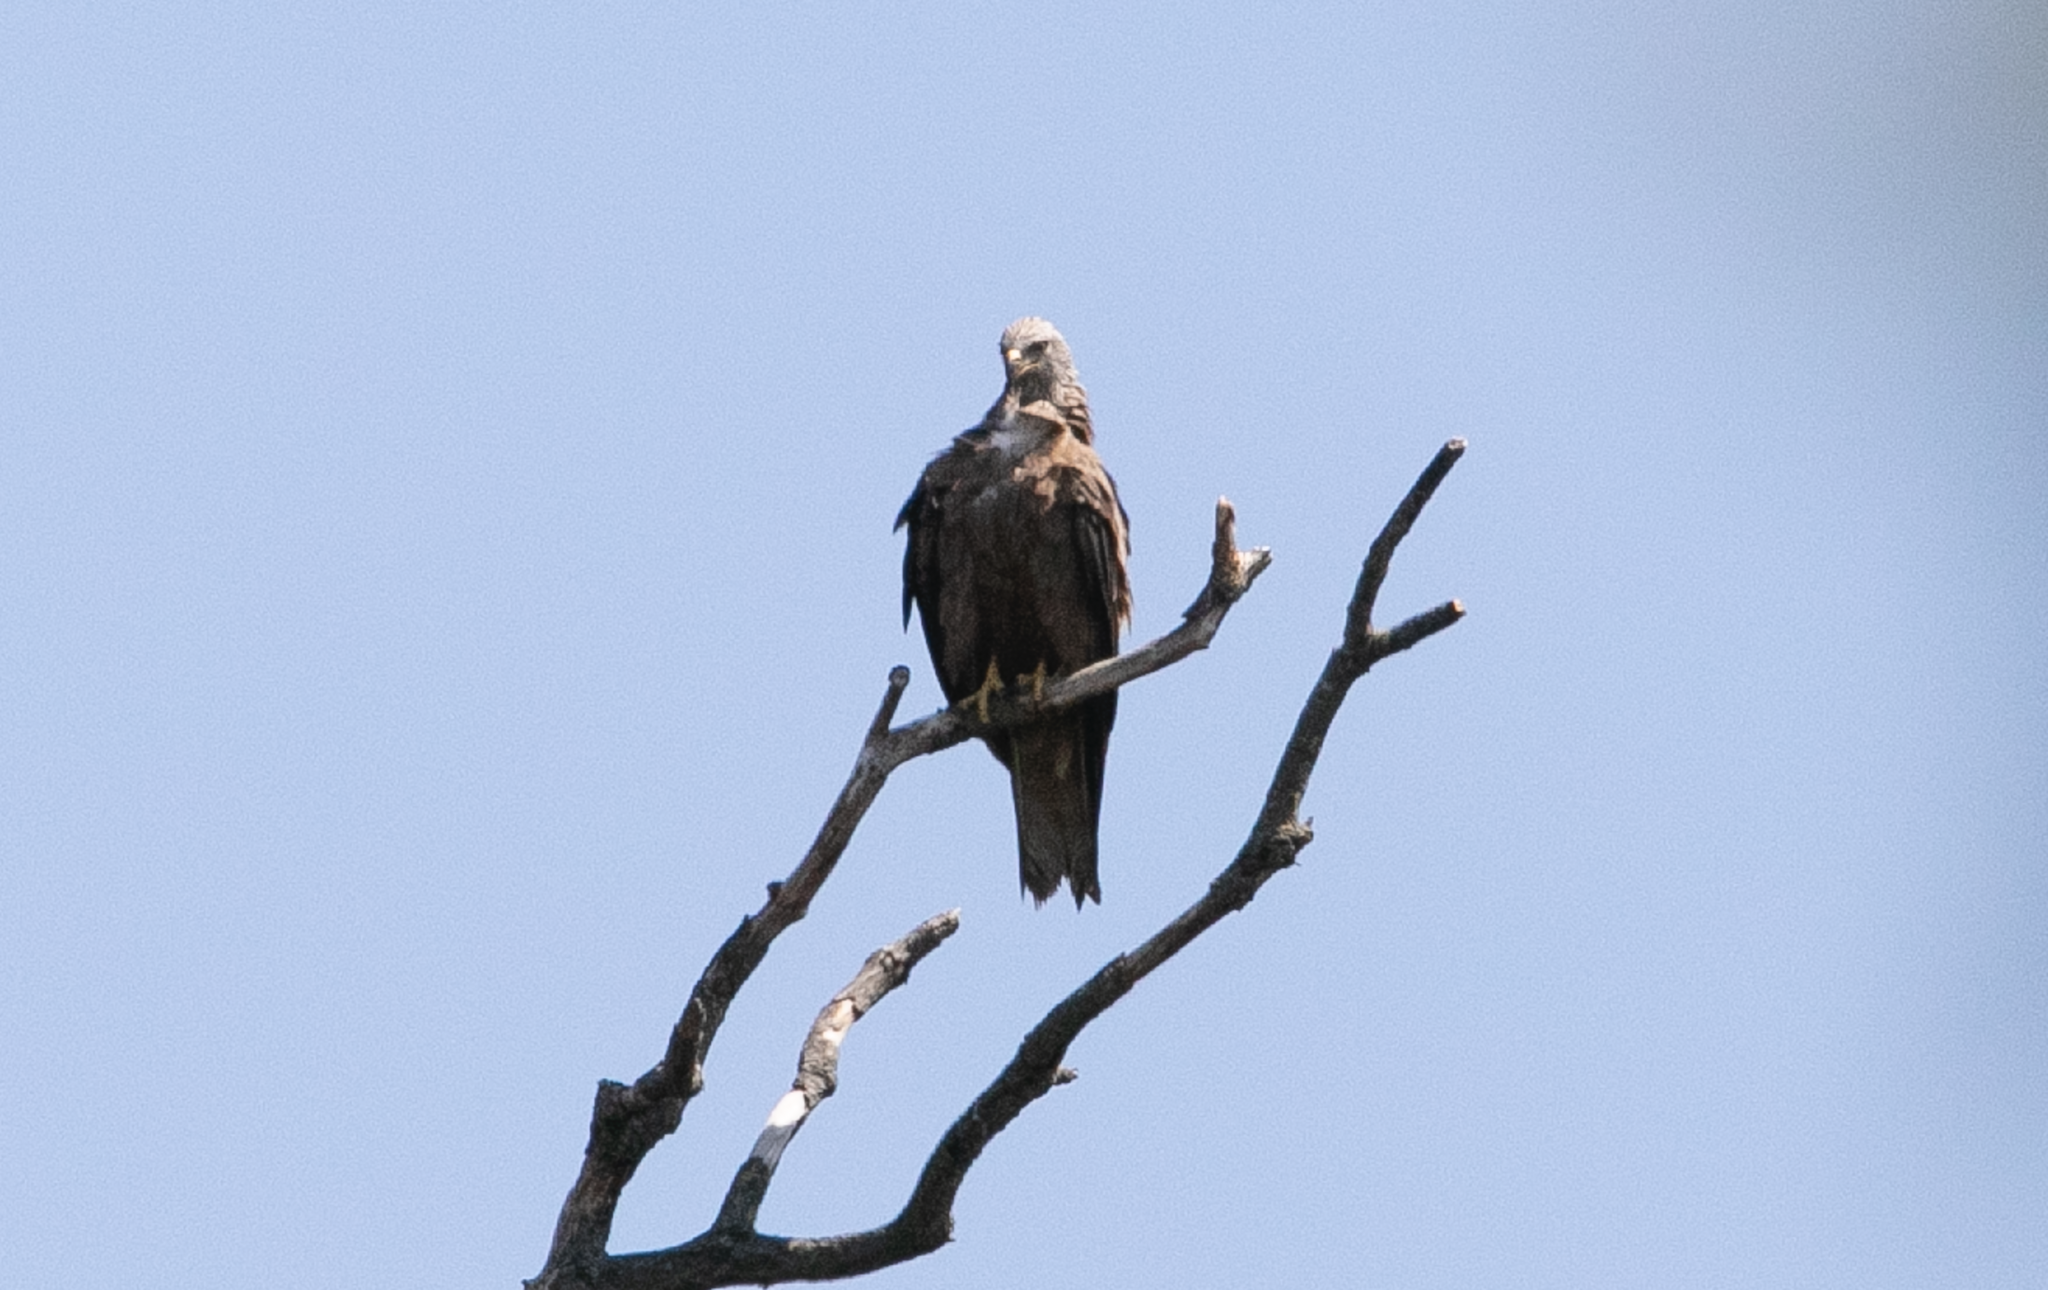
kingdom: Animalia
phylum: Chordata
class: Aves
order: Accipitriformes
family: Accipitridae
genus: Milvus
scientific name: Milvus migrans
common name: Black kite
